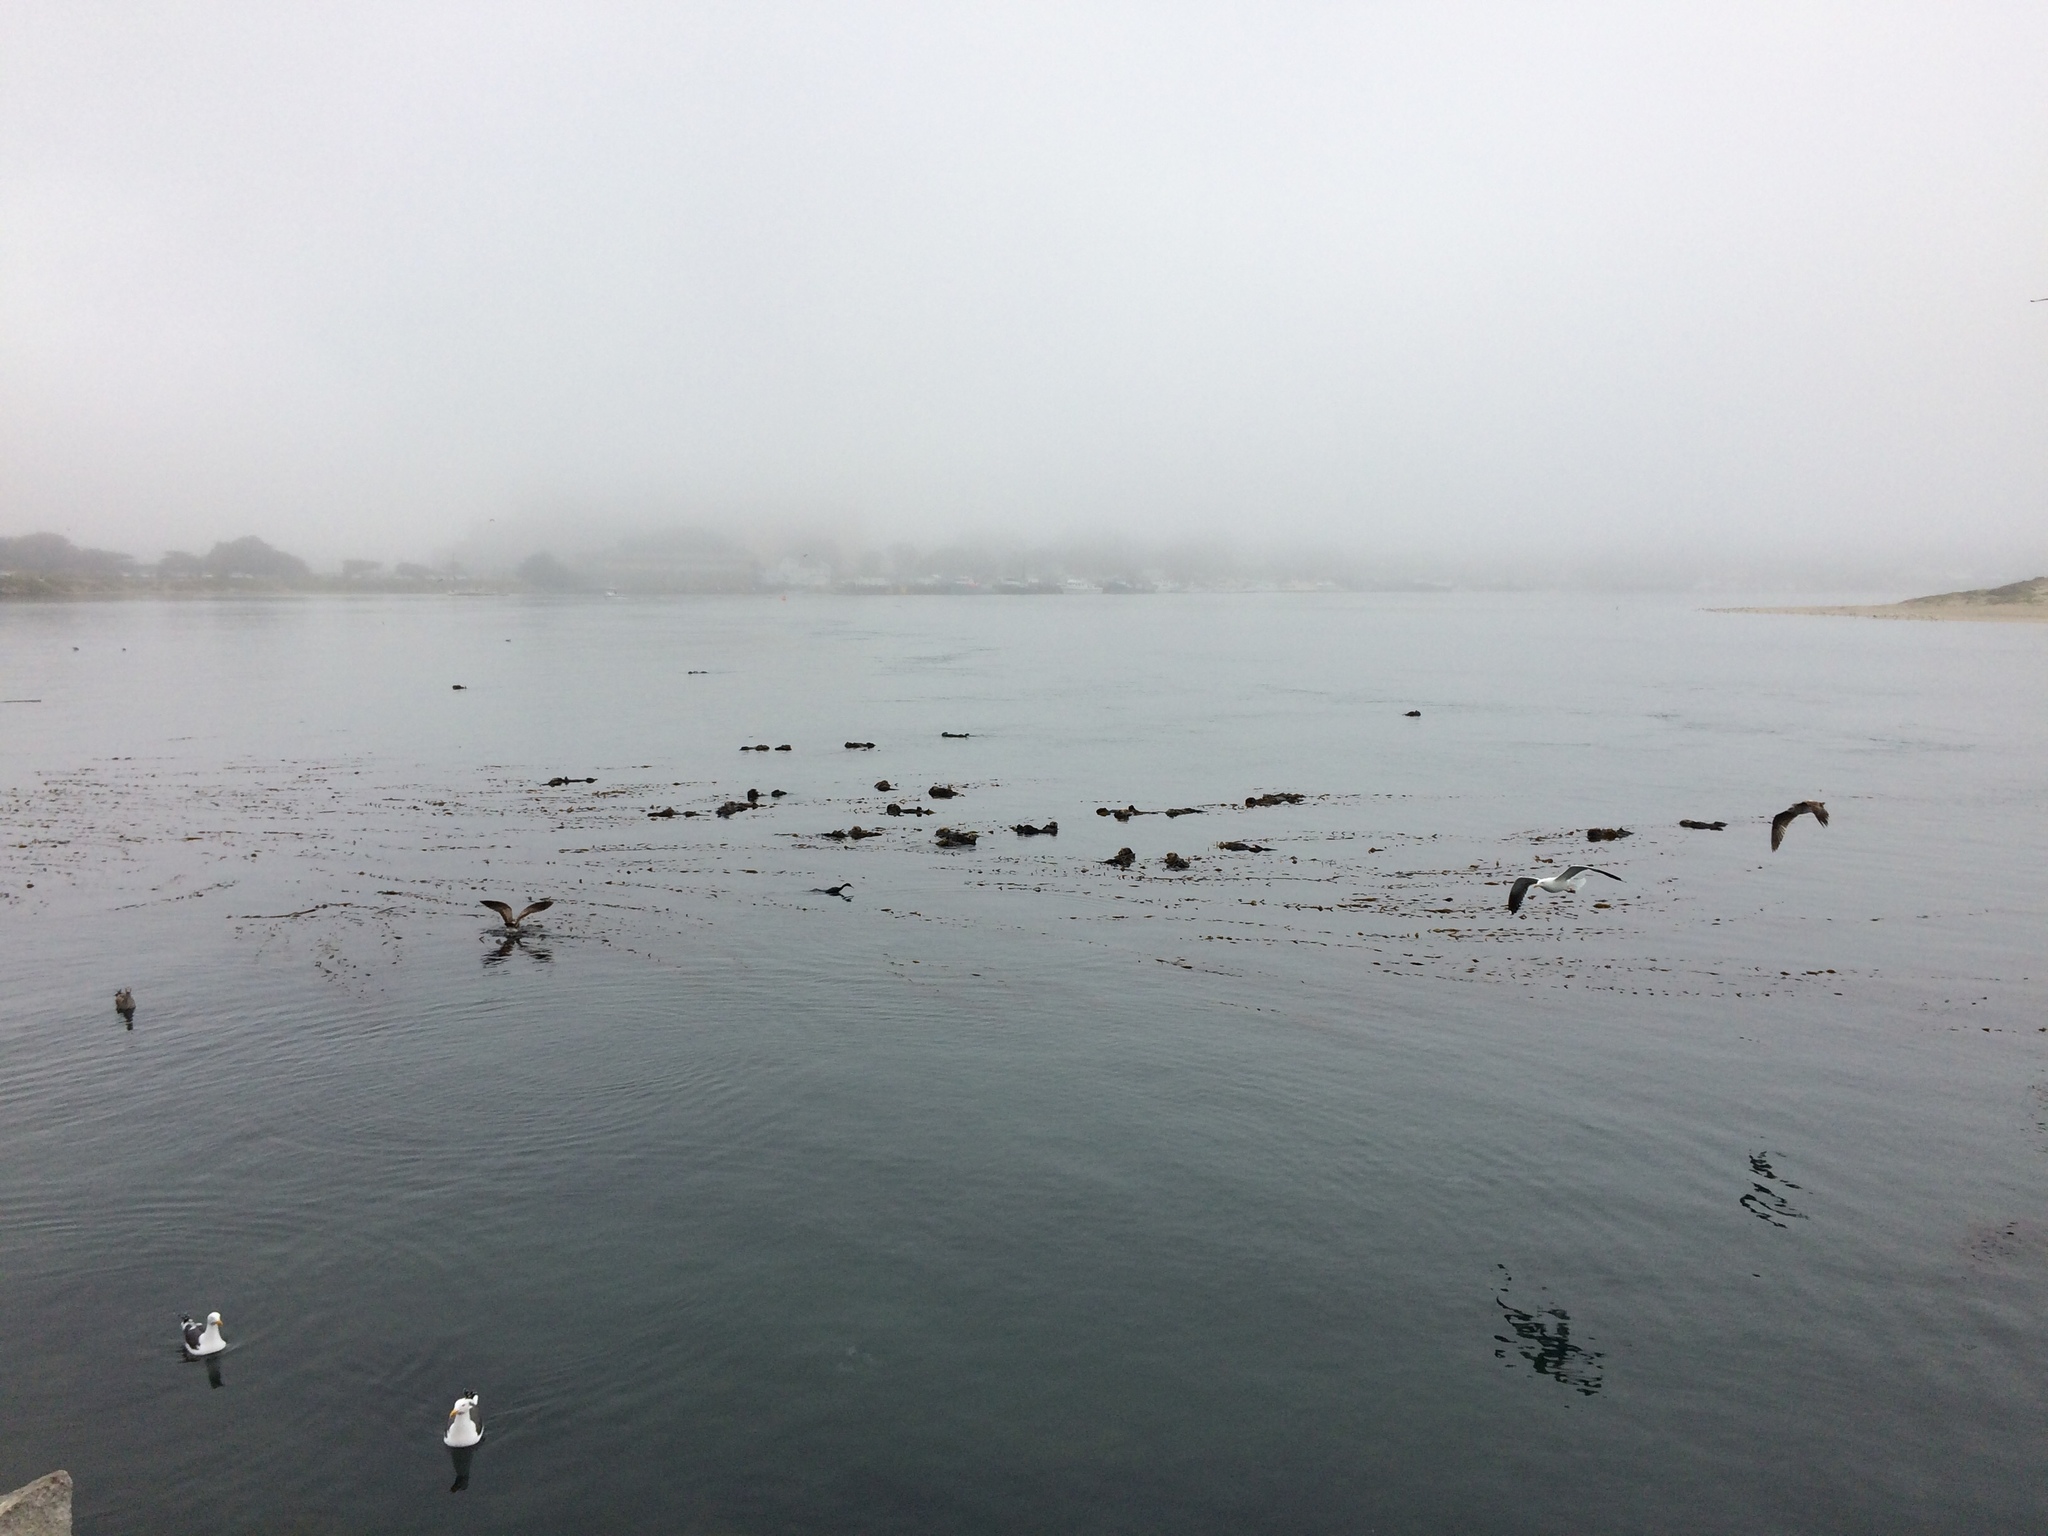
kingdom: Animalia
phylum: Chordata
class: Mammalia
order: Carnivora
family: Mustelidae
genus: Enhydra
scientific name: Enhydra lutris
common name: Sea otter
